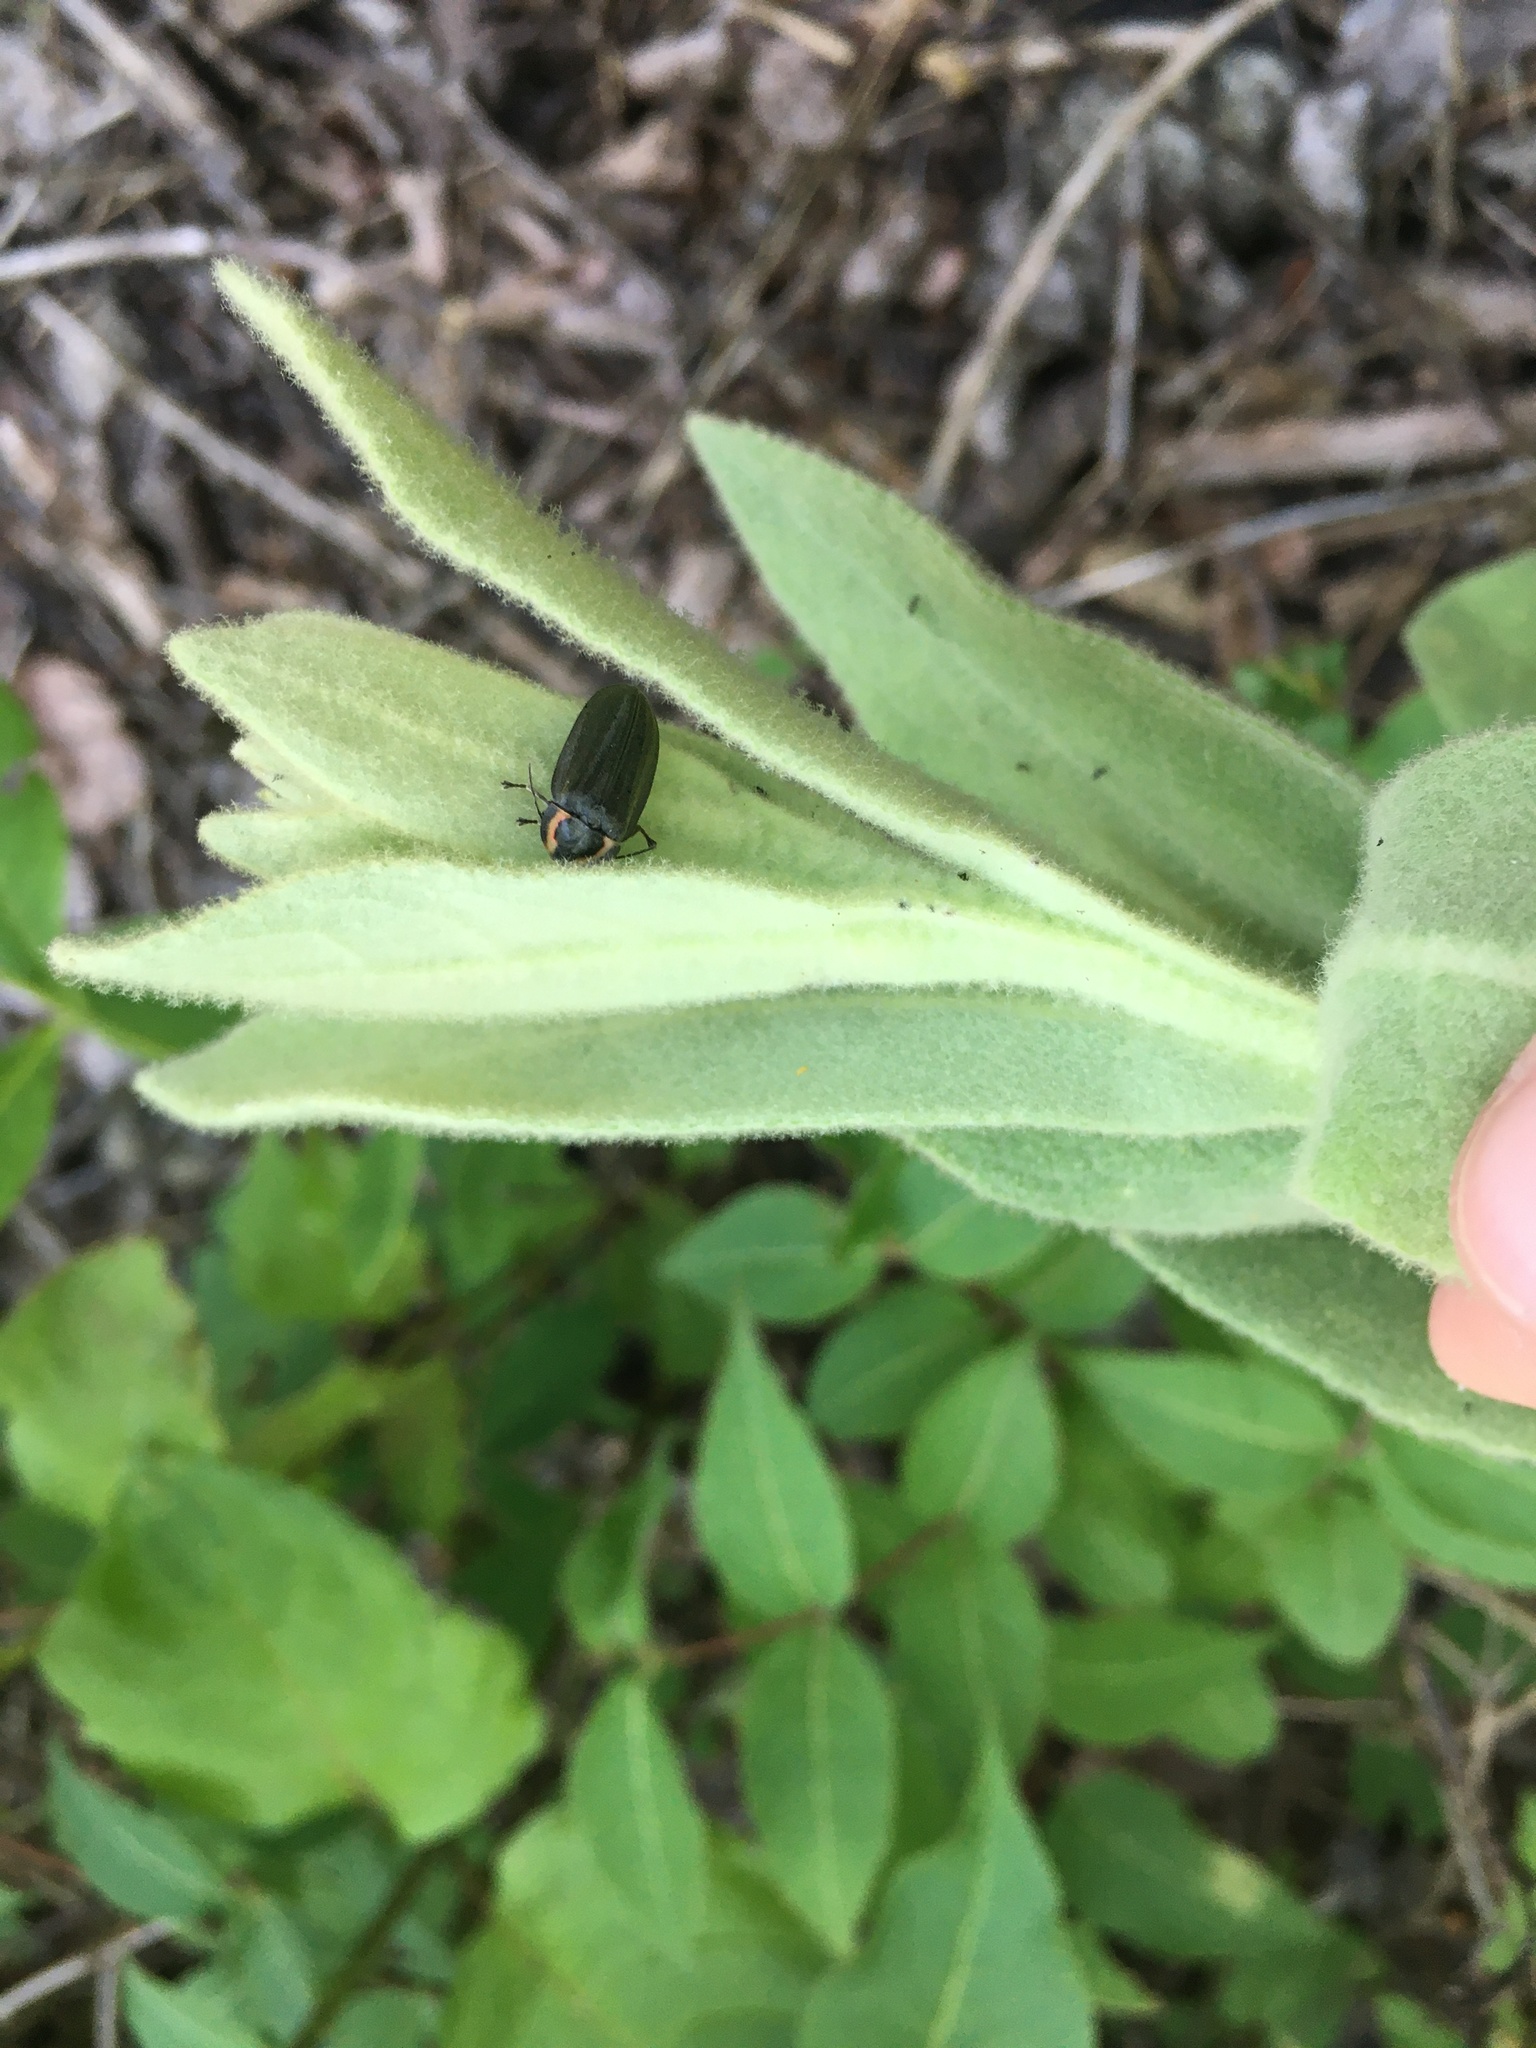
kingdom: Animalia
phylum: Arthropoda
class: Insecta
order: Coleoptera
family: Lampyridae
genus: Photinus
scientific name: Photinus corrusca
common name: Winter firefly
